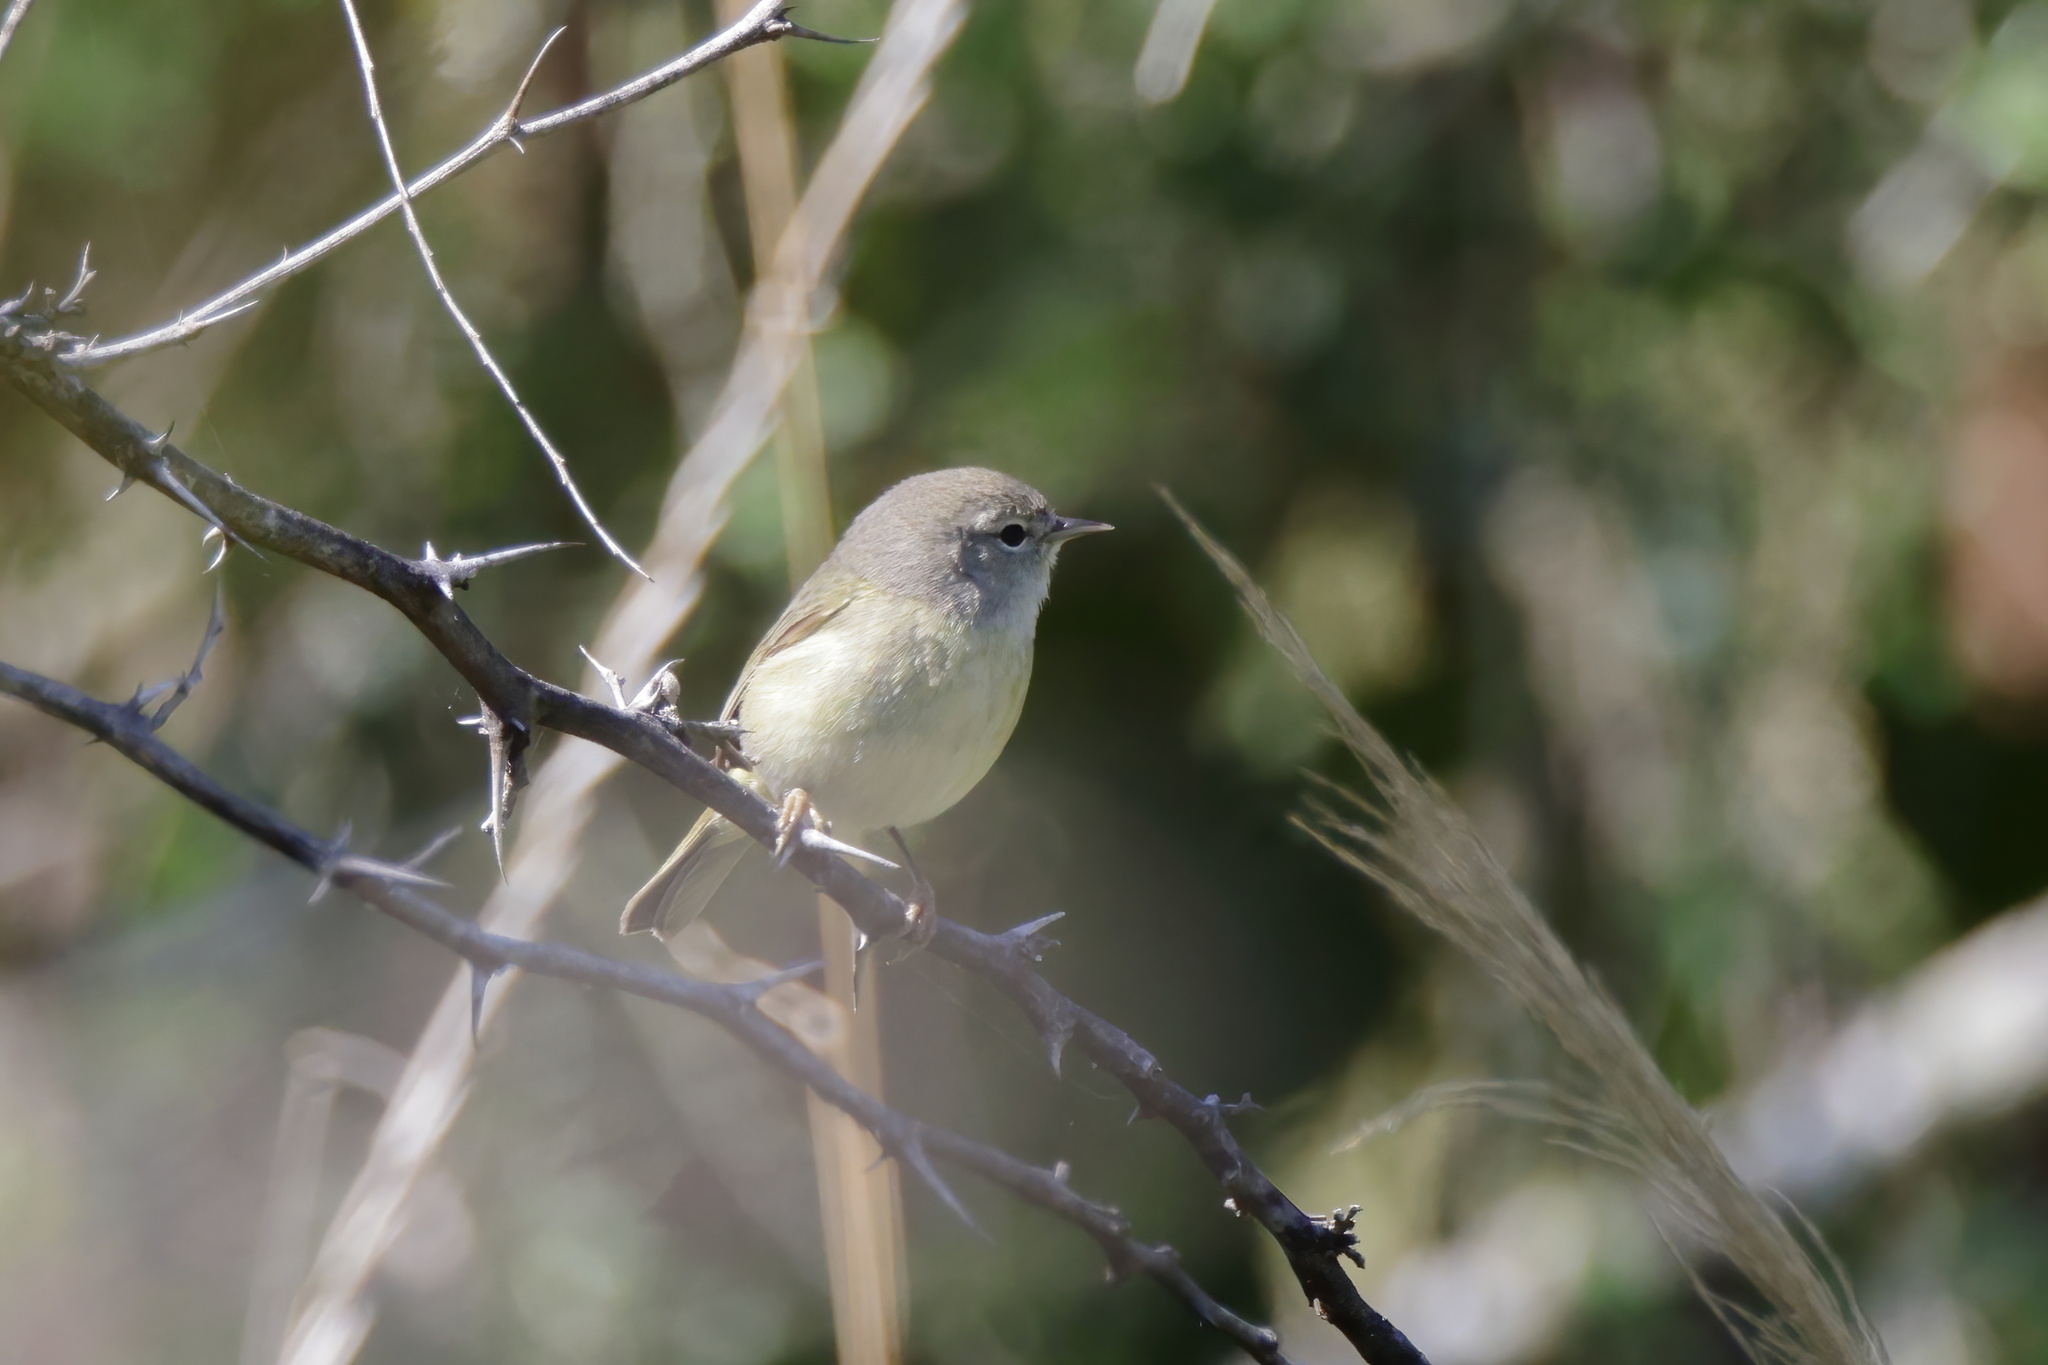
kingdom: Animalia
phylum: Chordata
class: Aves
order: Passeriformes
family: Parulidae
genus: Leiothlypis
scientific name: Leiothlypis celata
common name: Orange-crowned warbler
